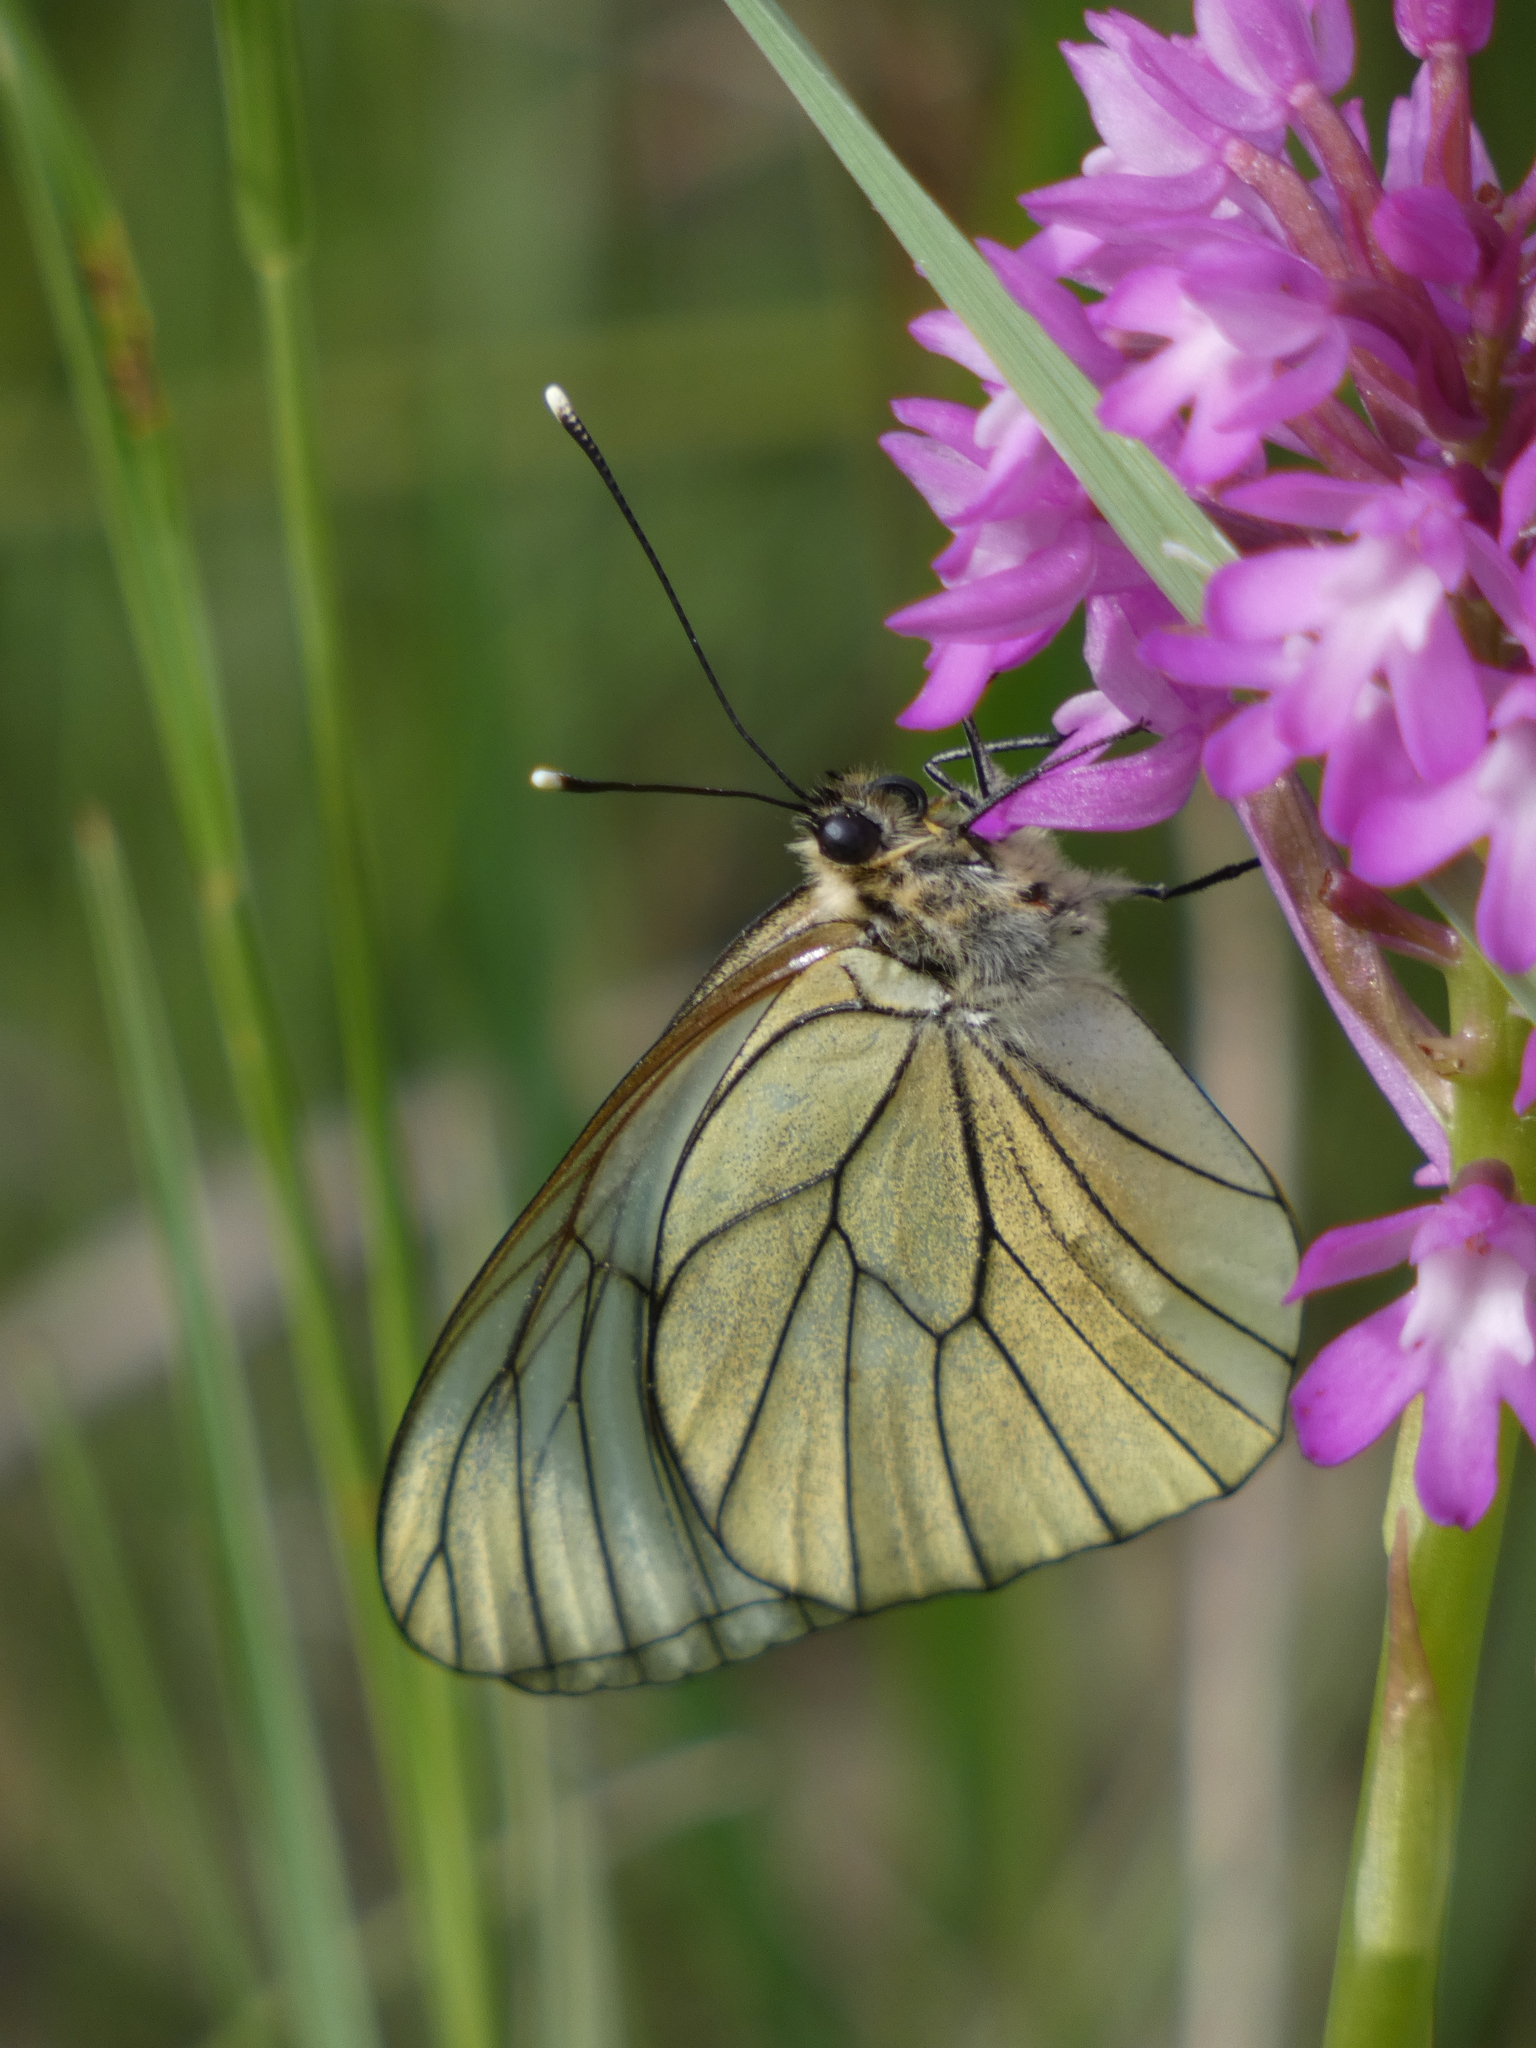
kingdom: Animalia
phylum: Arthropoda
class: Insecta
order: Lepidoptera
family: Pieridae
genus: Aporia
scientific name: Aporia crataegi
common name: Black-veined white
